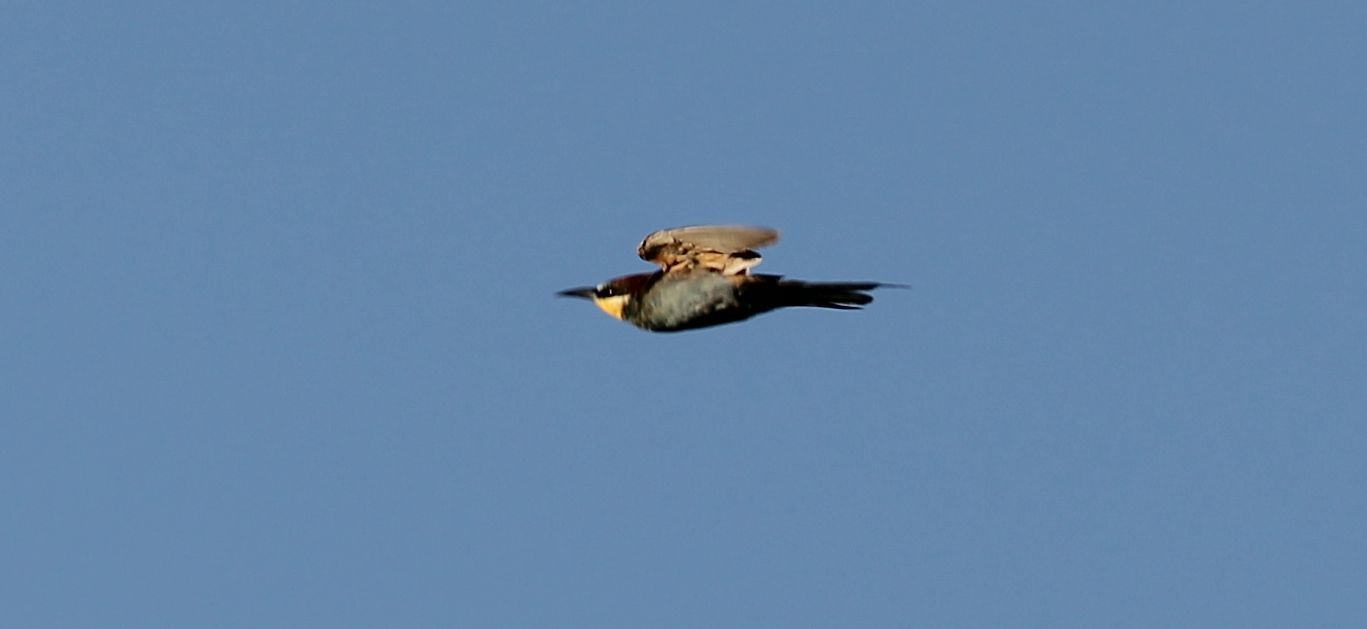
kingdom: Animalia
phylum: Chordata
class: Aves
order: Coraciiformes
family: Meropidae
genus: Merops
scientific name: Merops apiaster
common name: European bee-eater
